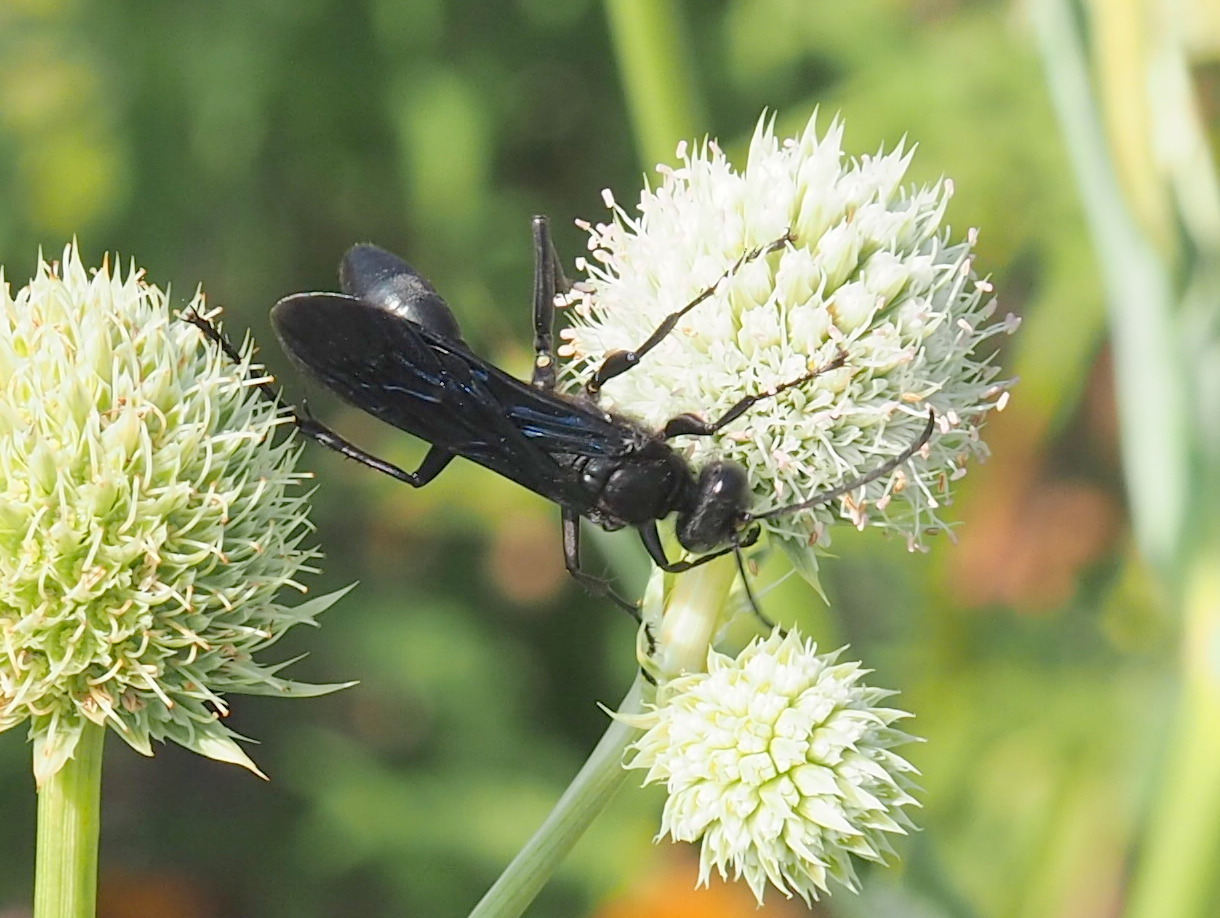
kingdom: Animalia
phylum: Arthropoda
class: Insecta
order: Hymenoptera
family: Sphecidae
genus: Sphex
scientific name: Sphex pensylvanicus
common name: Great black digger wasp
